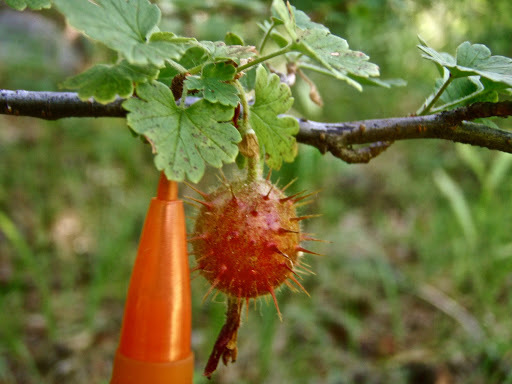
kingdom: Plantae
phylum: Tracheophyta
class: Magnoliopsida
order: Saxifragales
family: Grossulariaceae
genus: Ribes
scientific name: Ribes roezlii
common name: Sierra gooseberry
